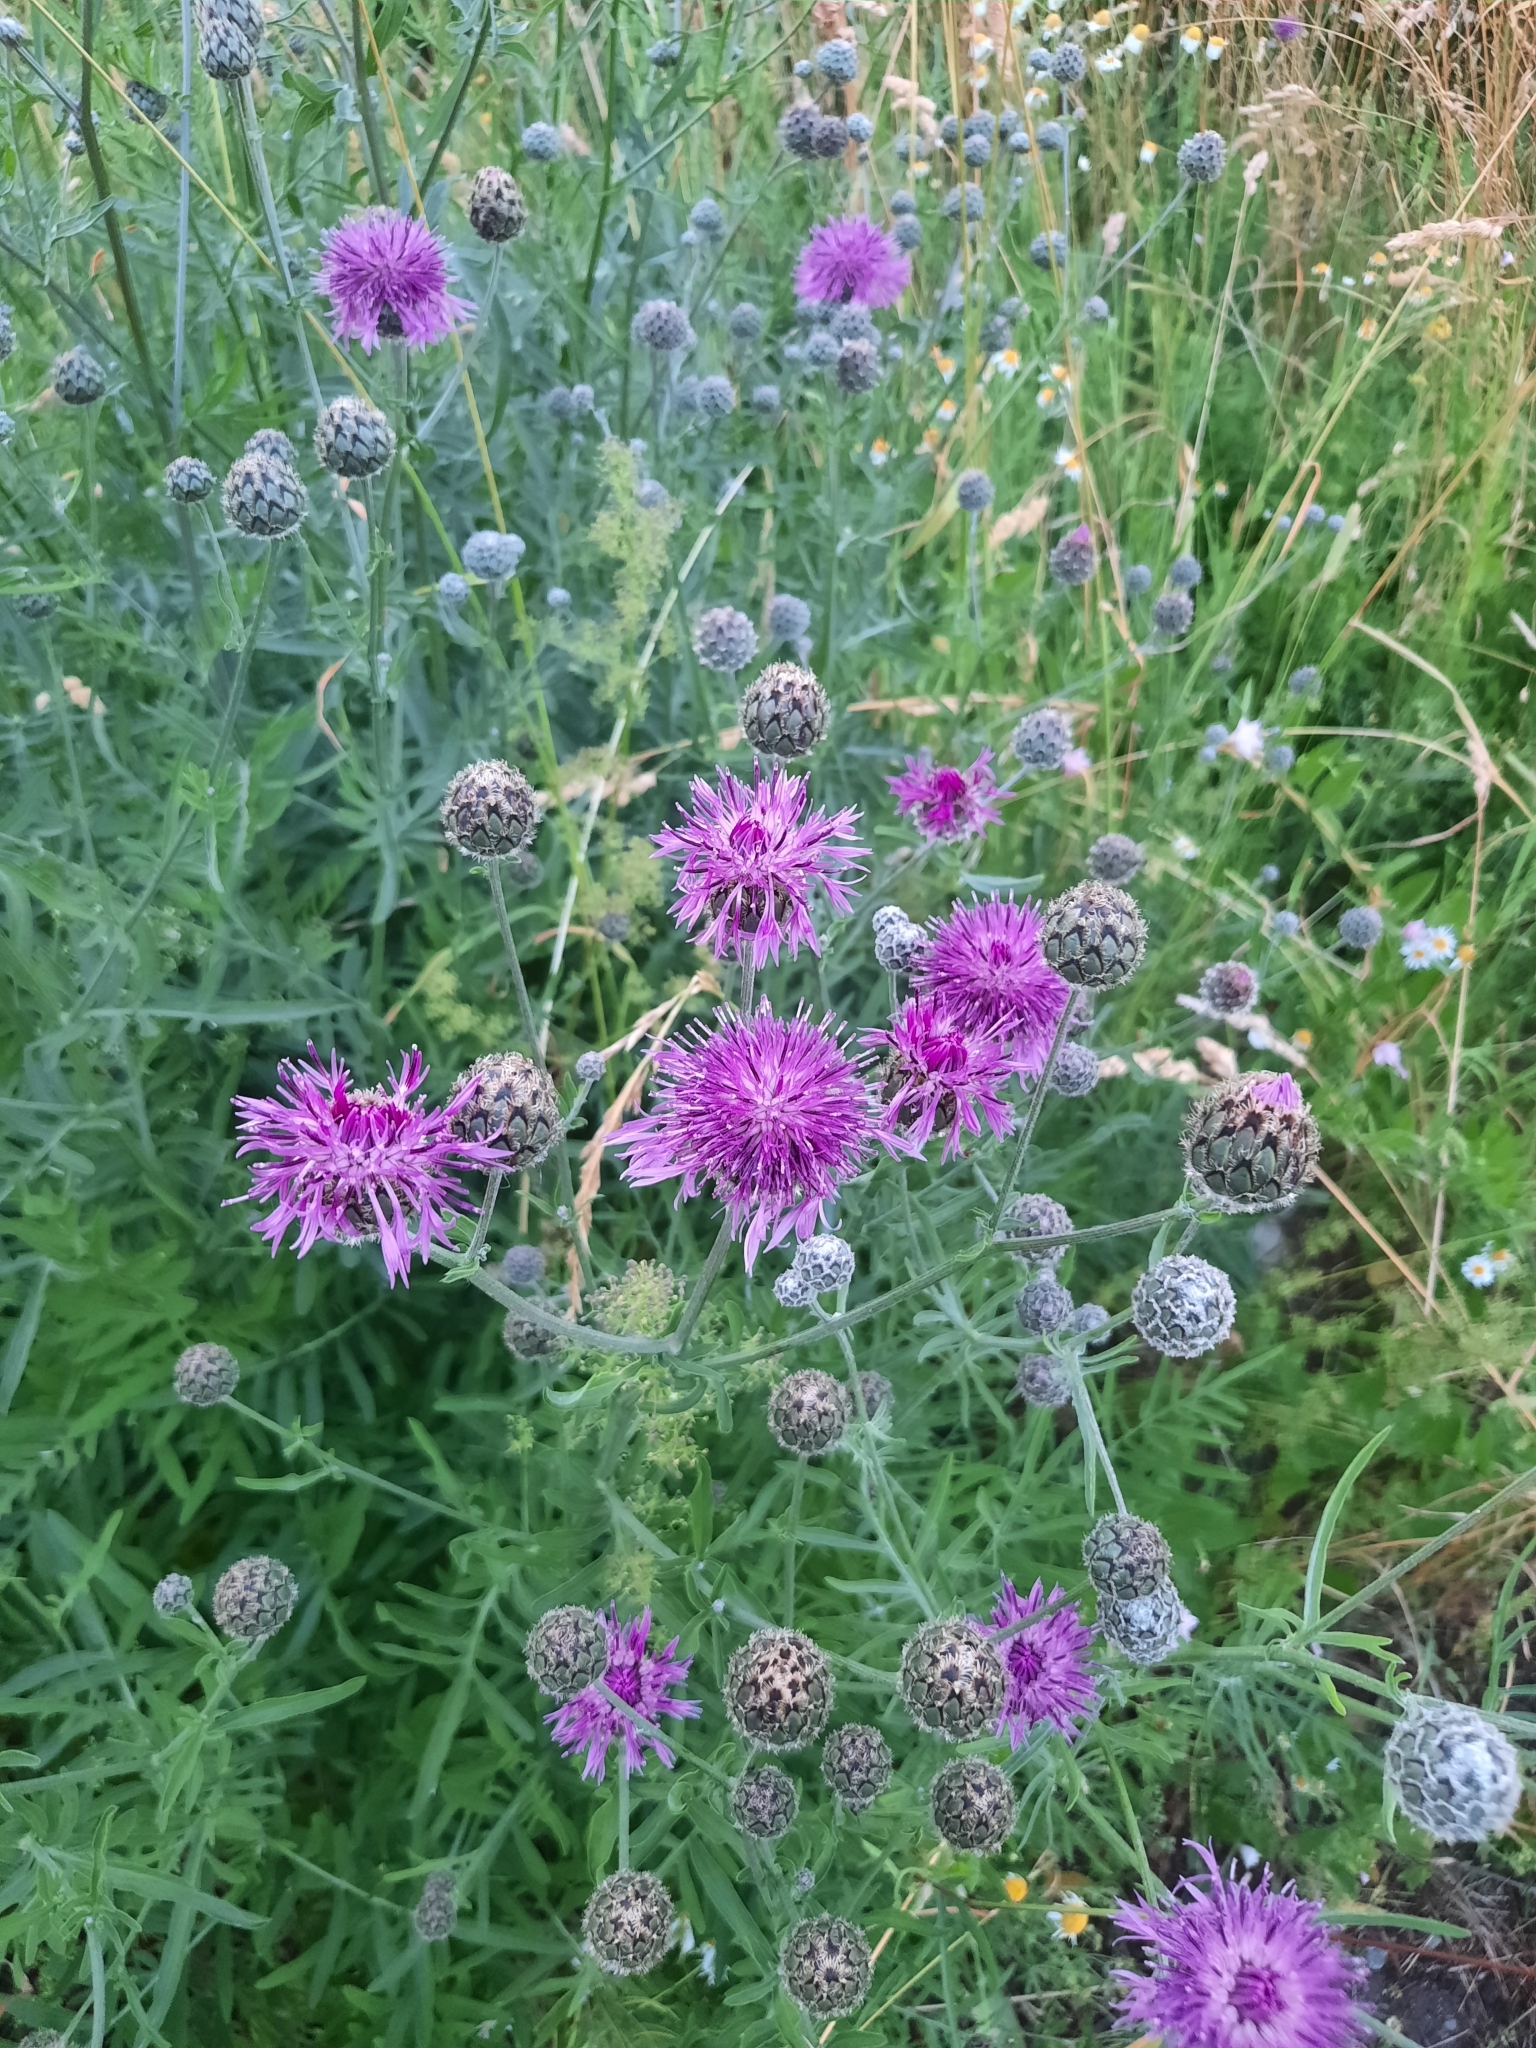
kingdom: Plantae
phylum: Tracheophyta
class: Magnoliopsida
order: Asterales
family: Asteraceae
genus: Centaurea
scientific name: Centaurea scabiosa
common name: Greater knapweed
